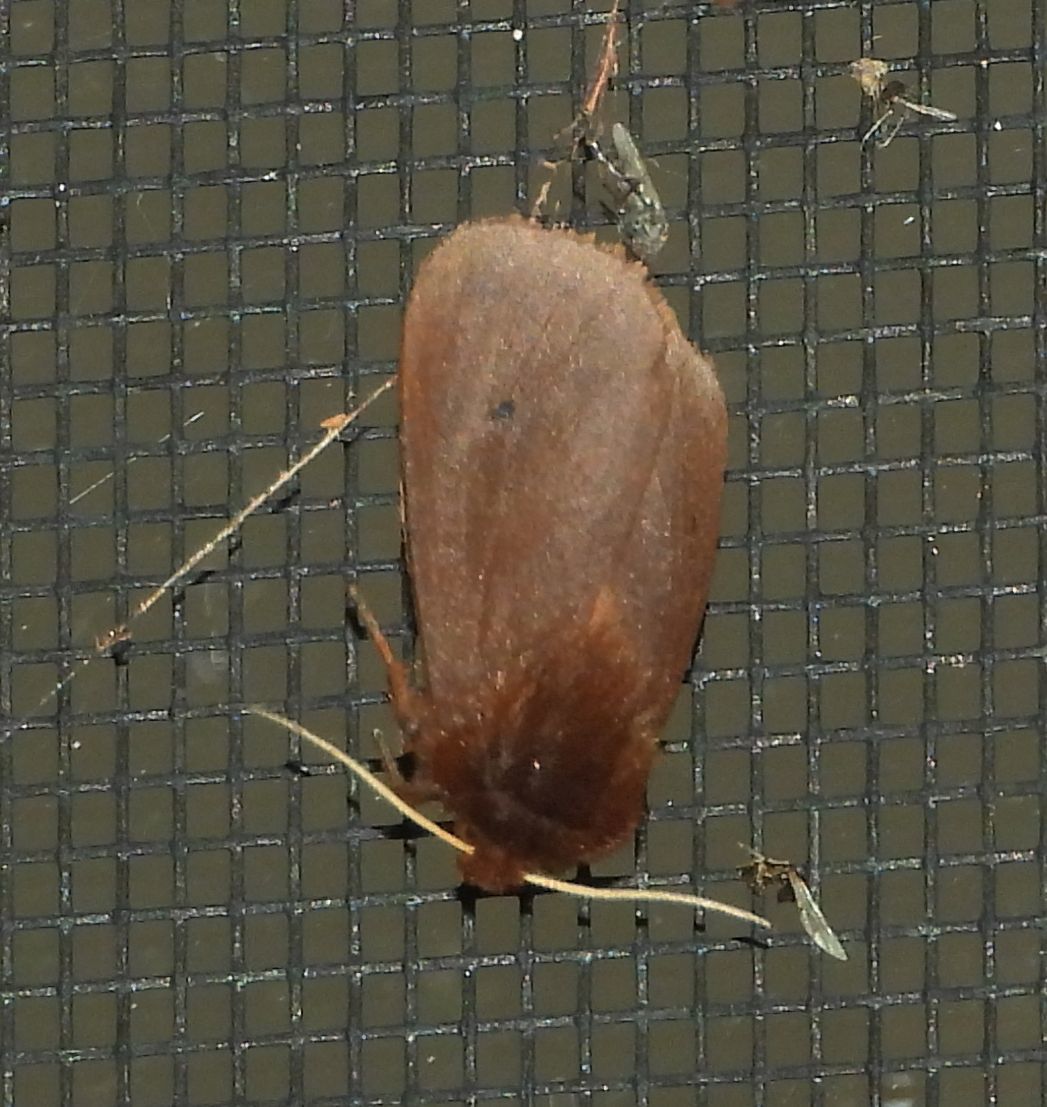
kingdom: Animalia
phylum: Arthropoda
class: Insecta
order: Lepidoptera
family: Erebidae
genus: Phragmatobia
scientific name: Phragmatobia fuliginosa
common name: Ruby tiger
